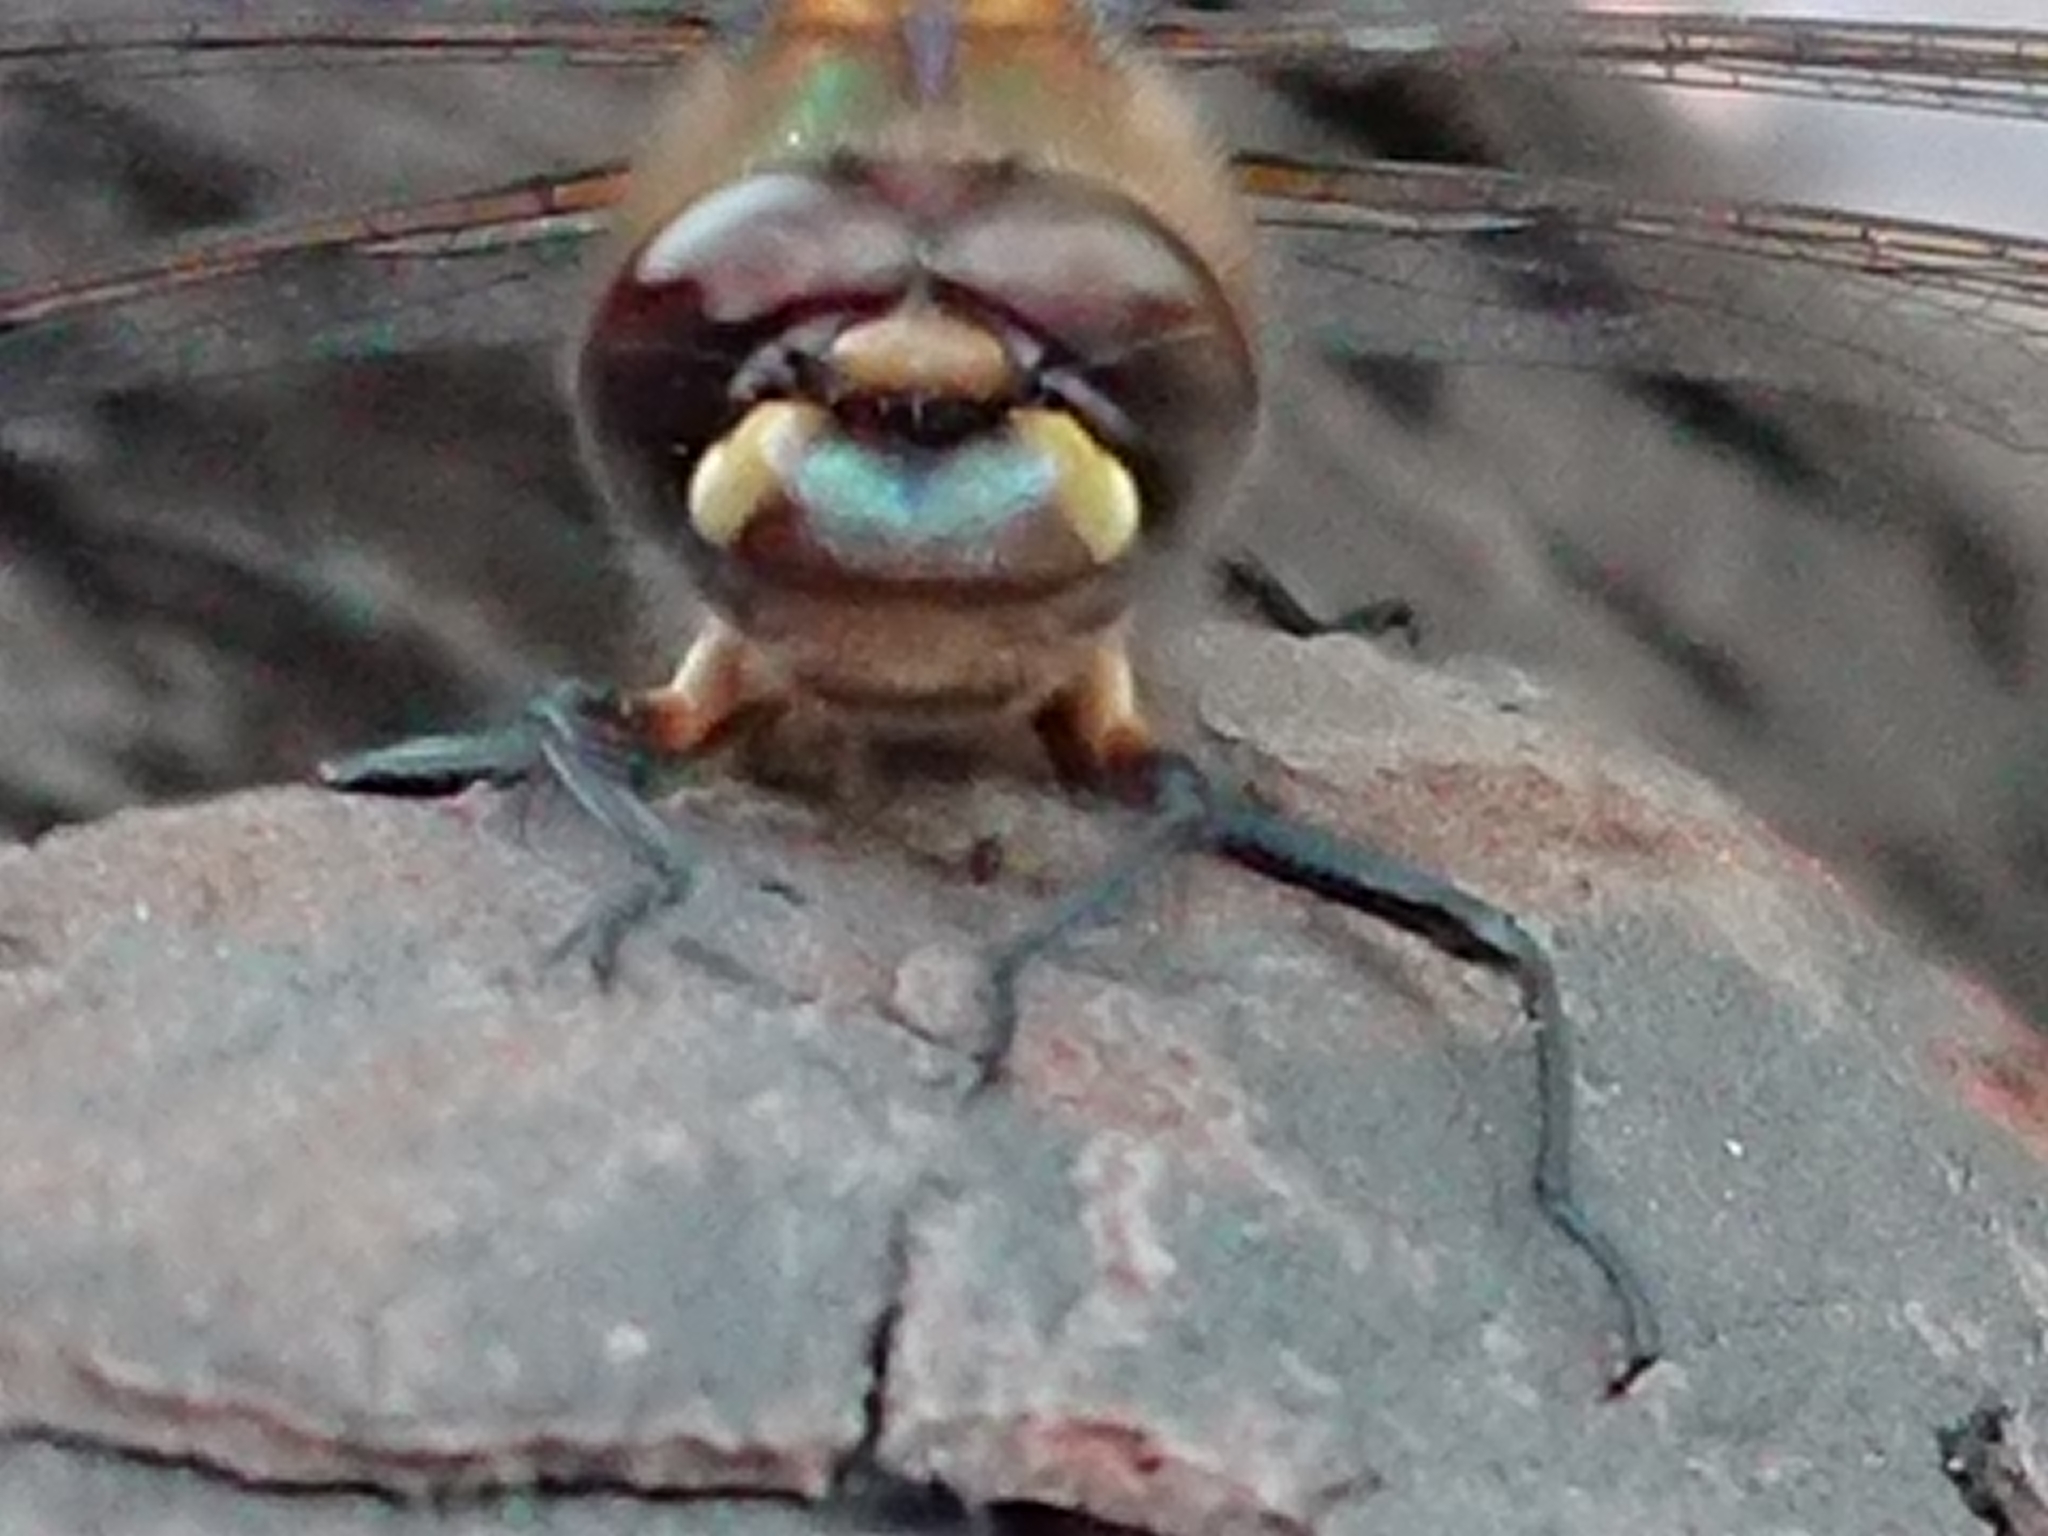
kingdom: Animalia
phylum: Arthropoda
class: Insecta
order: Odonata
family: Corduliidae
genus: Procordulia
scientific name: Procordulia grayi
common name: Yellow spotted dragonfly
